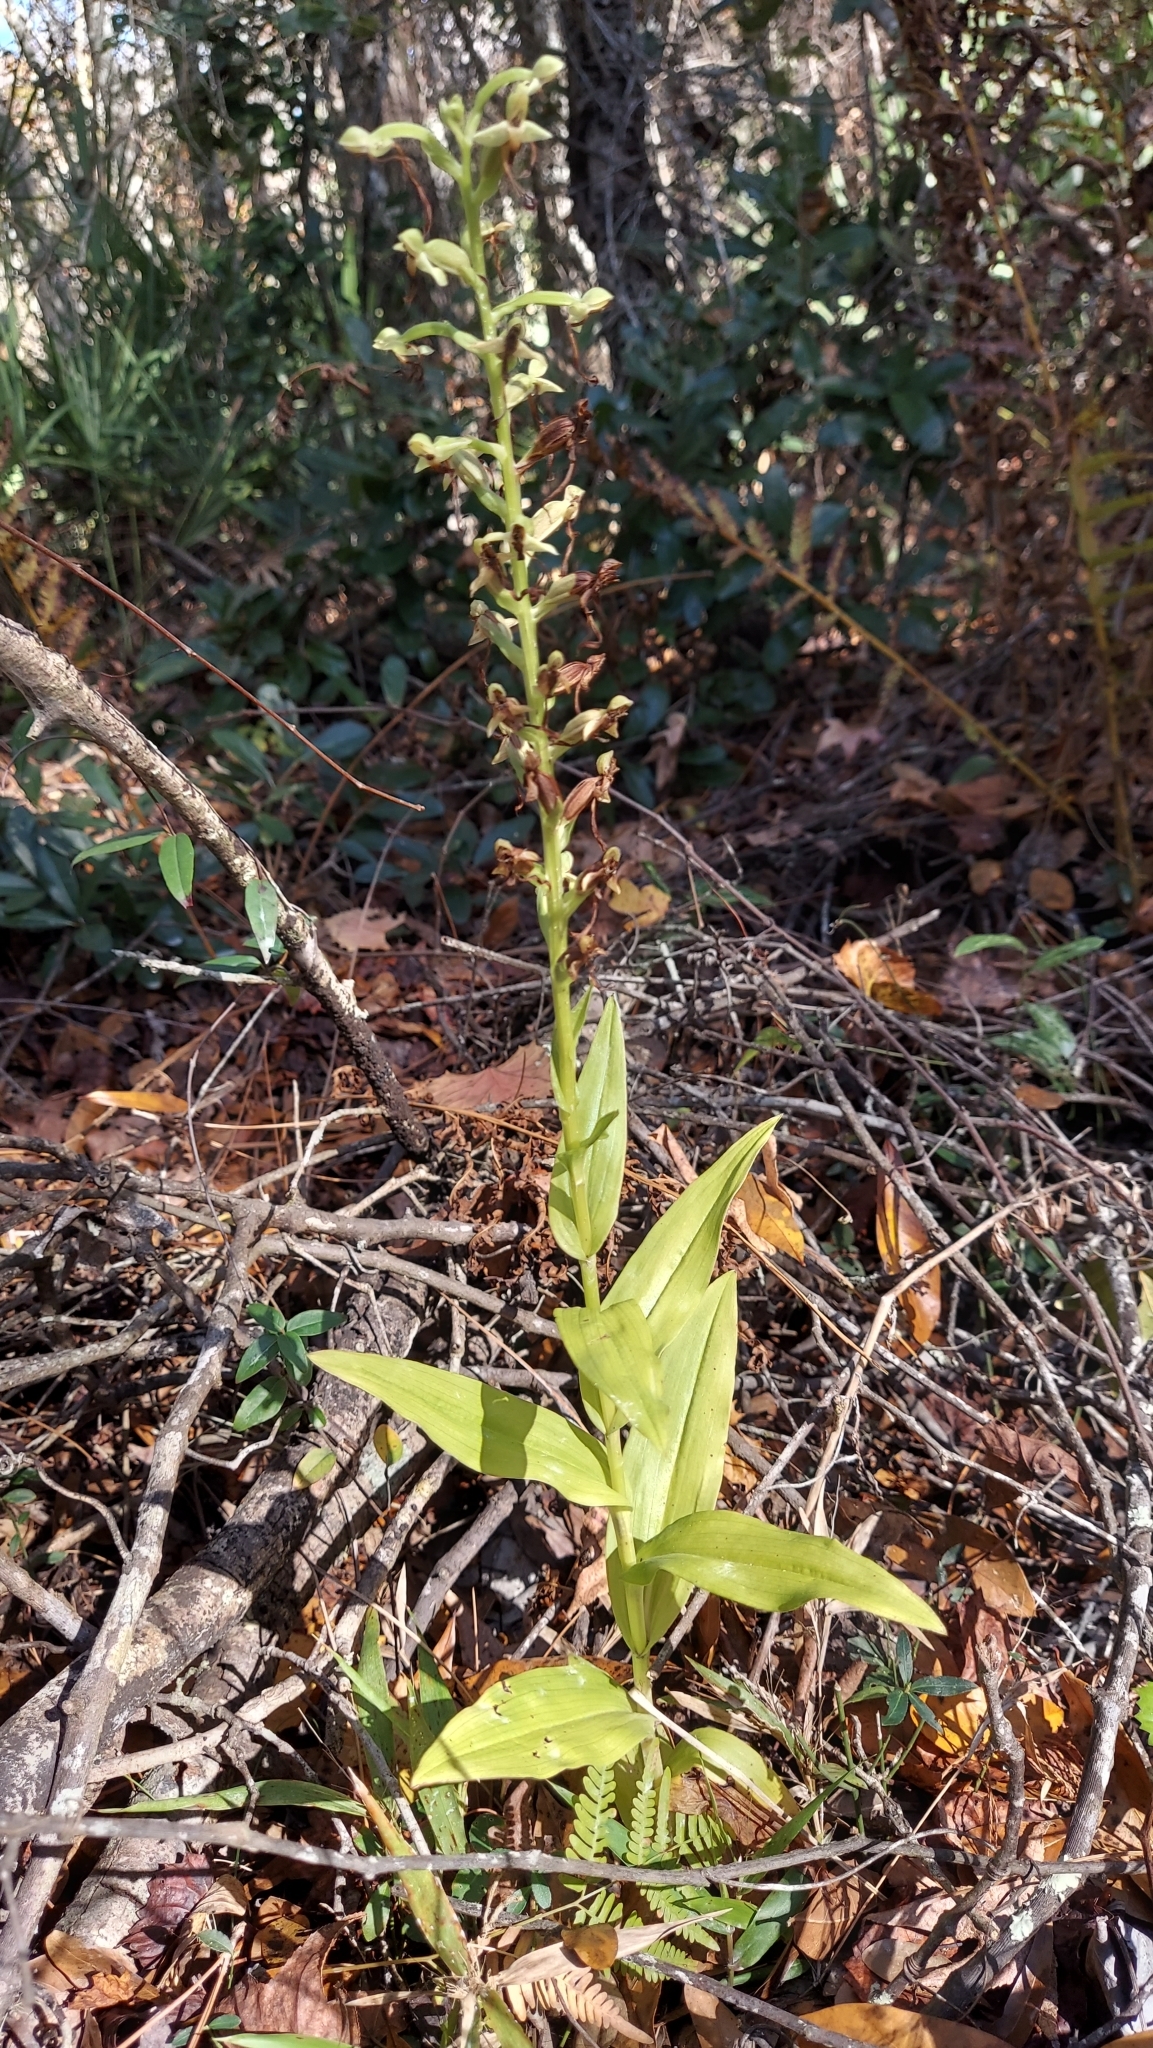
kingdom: Plantae
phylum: Tracheophyta
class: Liliopsida
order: Asparagales
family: Orchidaceae
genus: Habenaria
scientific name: Habenaria floribunda
